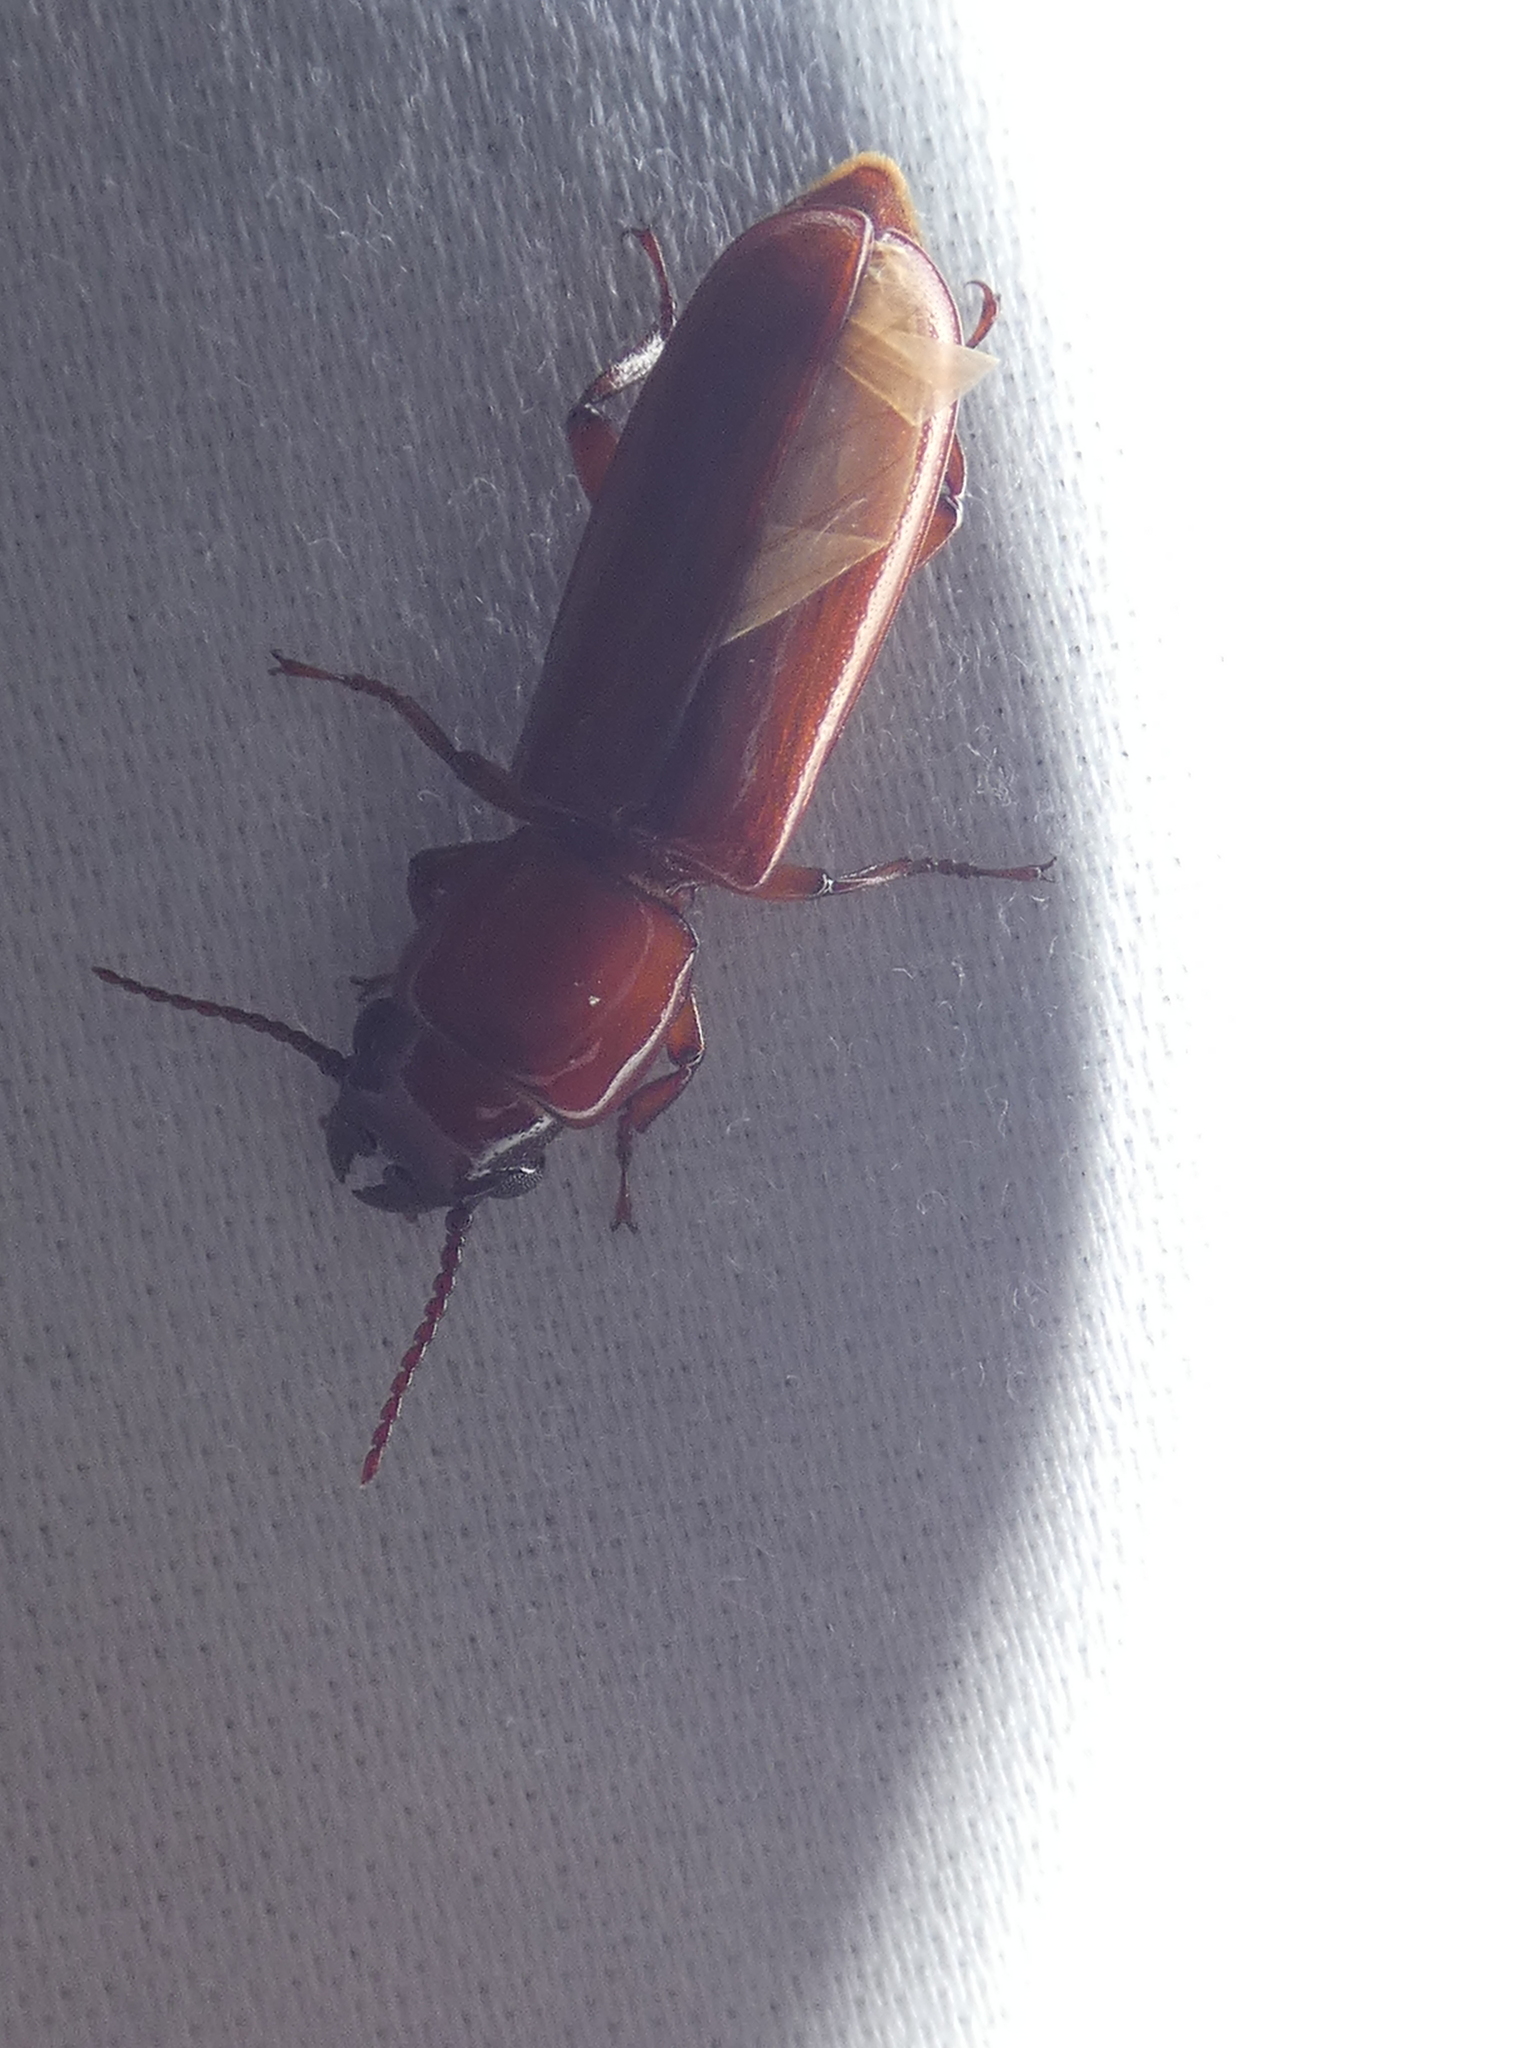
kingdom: Animalia
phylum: Arthropoda
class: Insecta
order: Coleoptera
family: Cerambycidae
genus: Parandra
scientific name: Parandra polita
